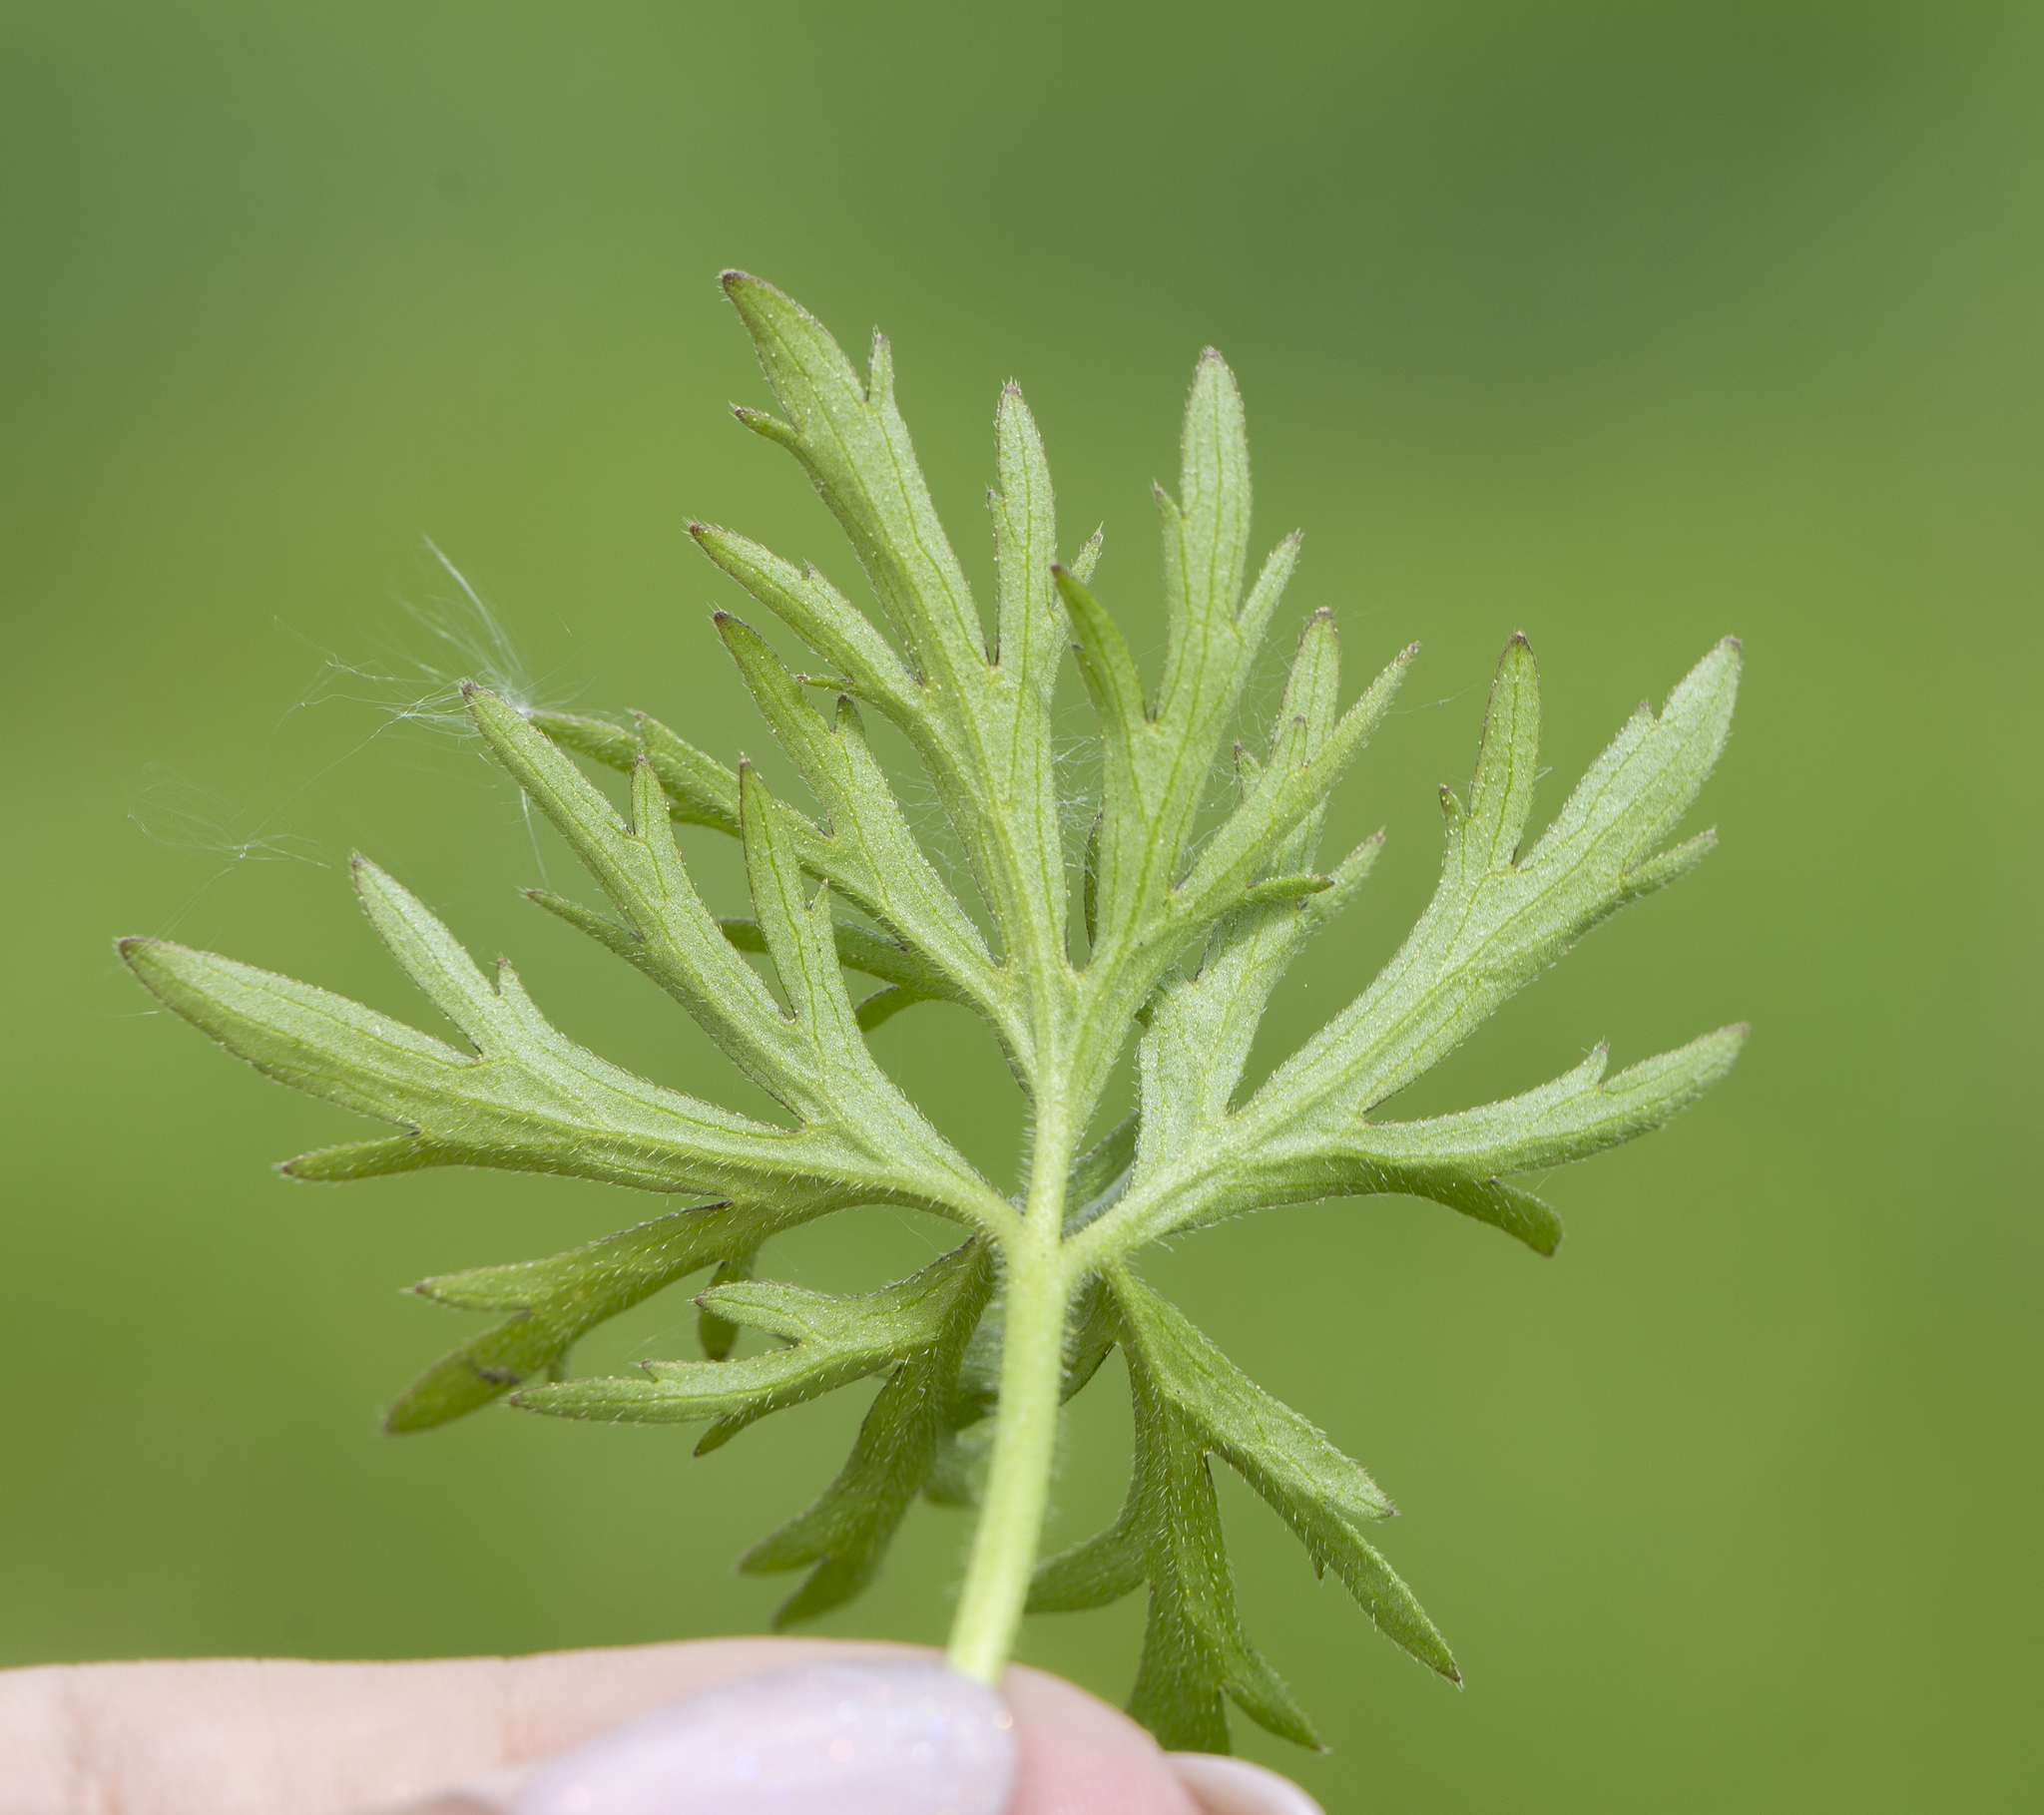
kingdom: Plantae
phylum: Tracheophyta
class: Magnoliopsida
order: Ranunculales
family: Ranunculaceae
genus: Ranunculus
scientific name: Ranunculus polyanthemos
